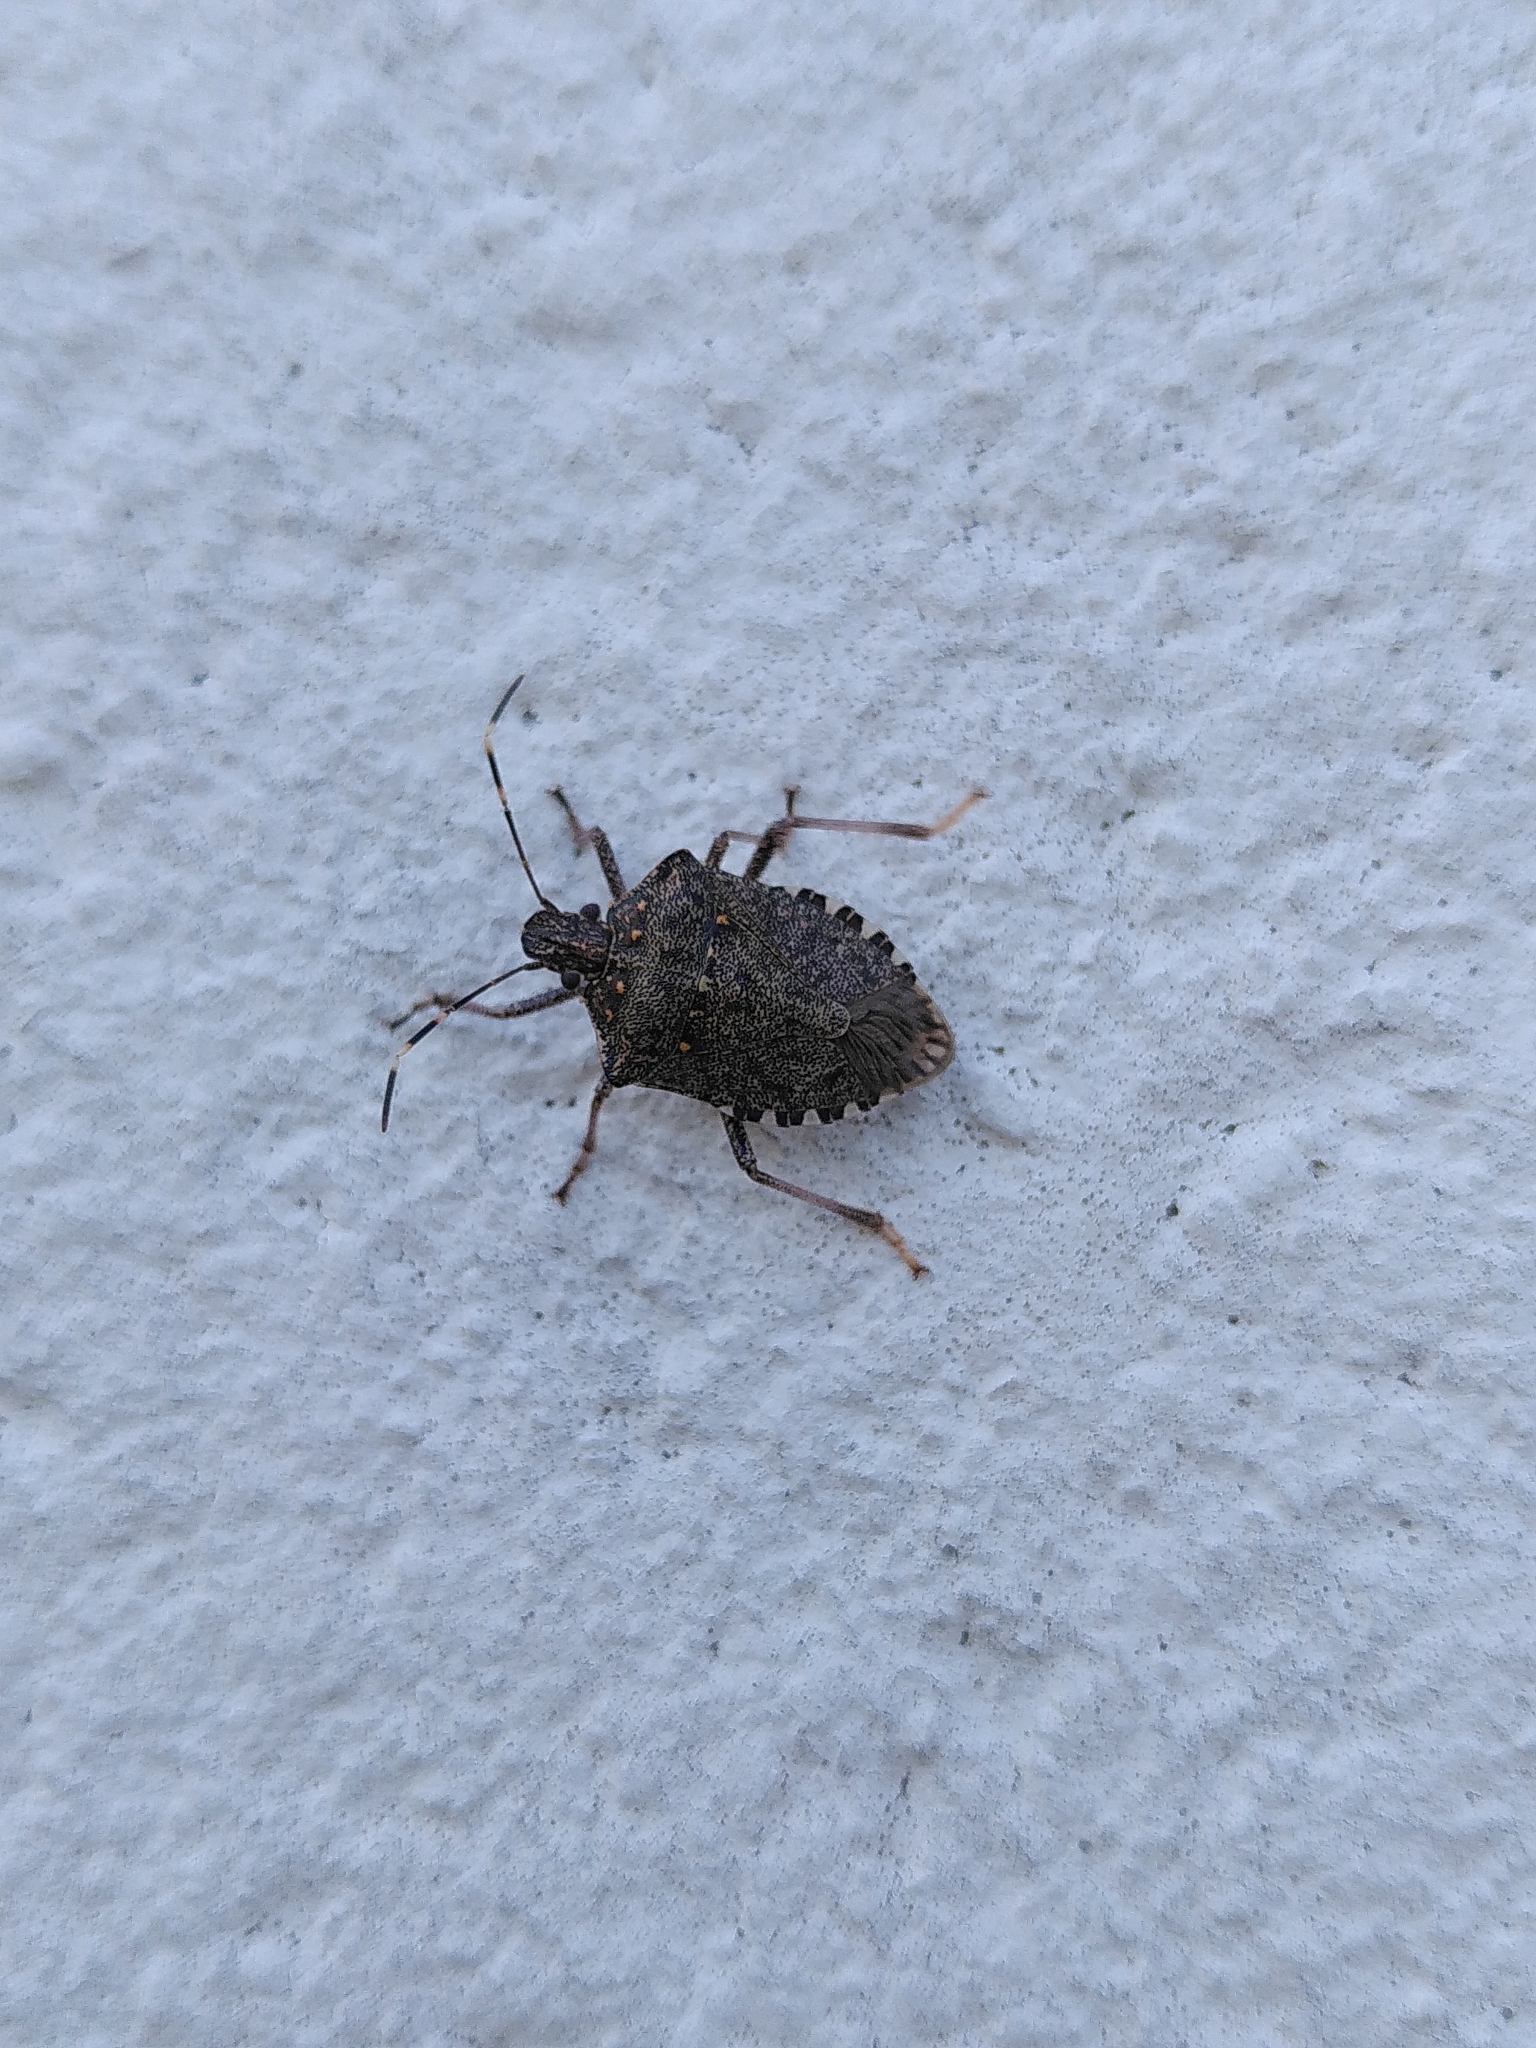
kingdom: Animalia
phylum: Arthropoda
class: Insecta
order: Hemiptera
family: Pentatomidae
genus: Halyomorpha
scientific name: Halyomorpha halys
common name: Brown marmorated stink bug
